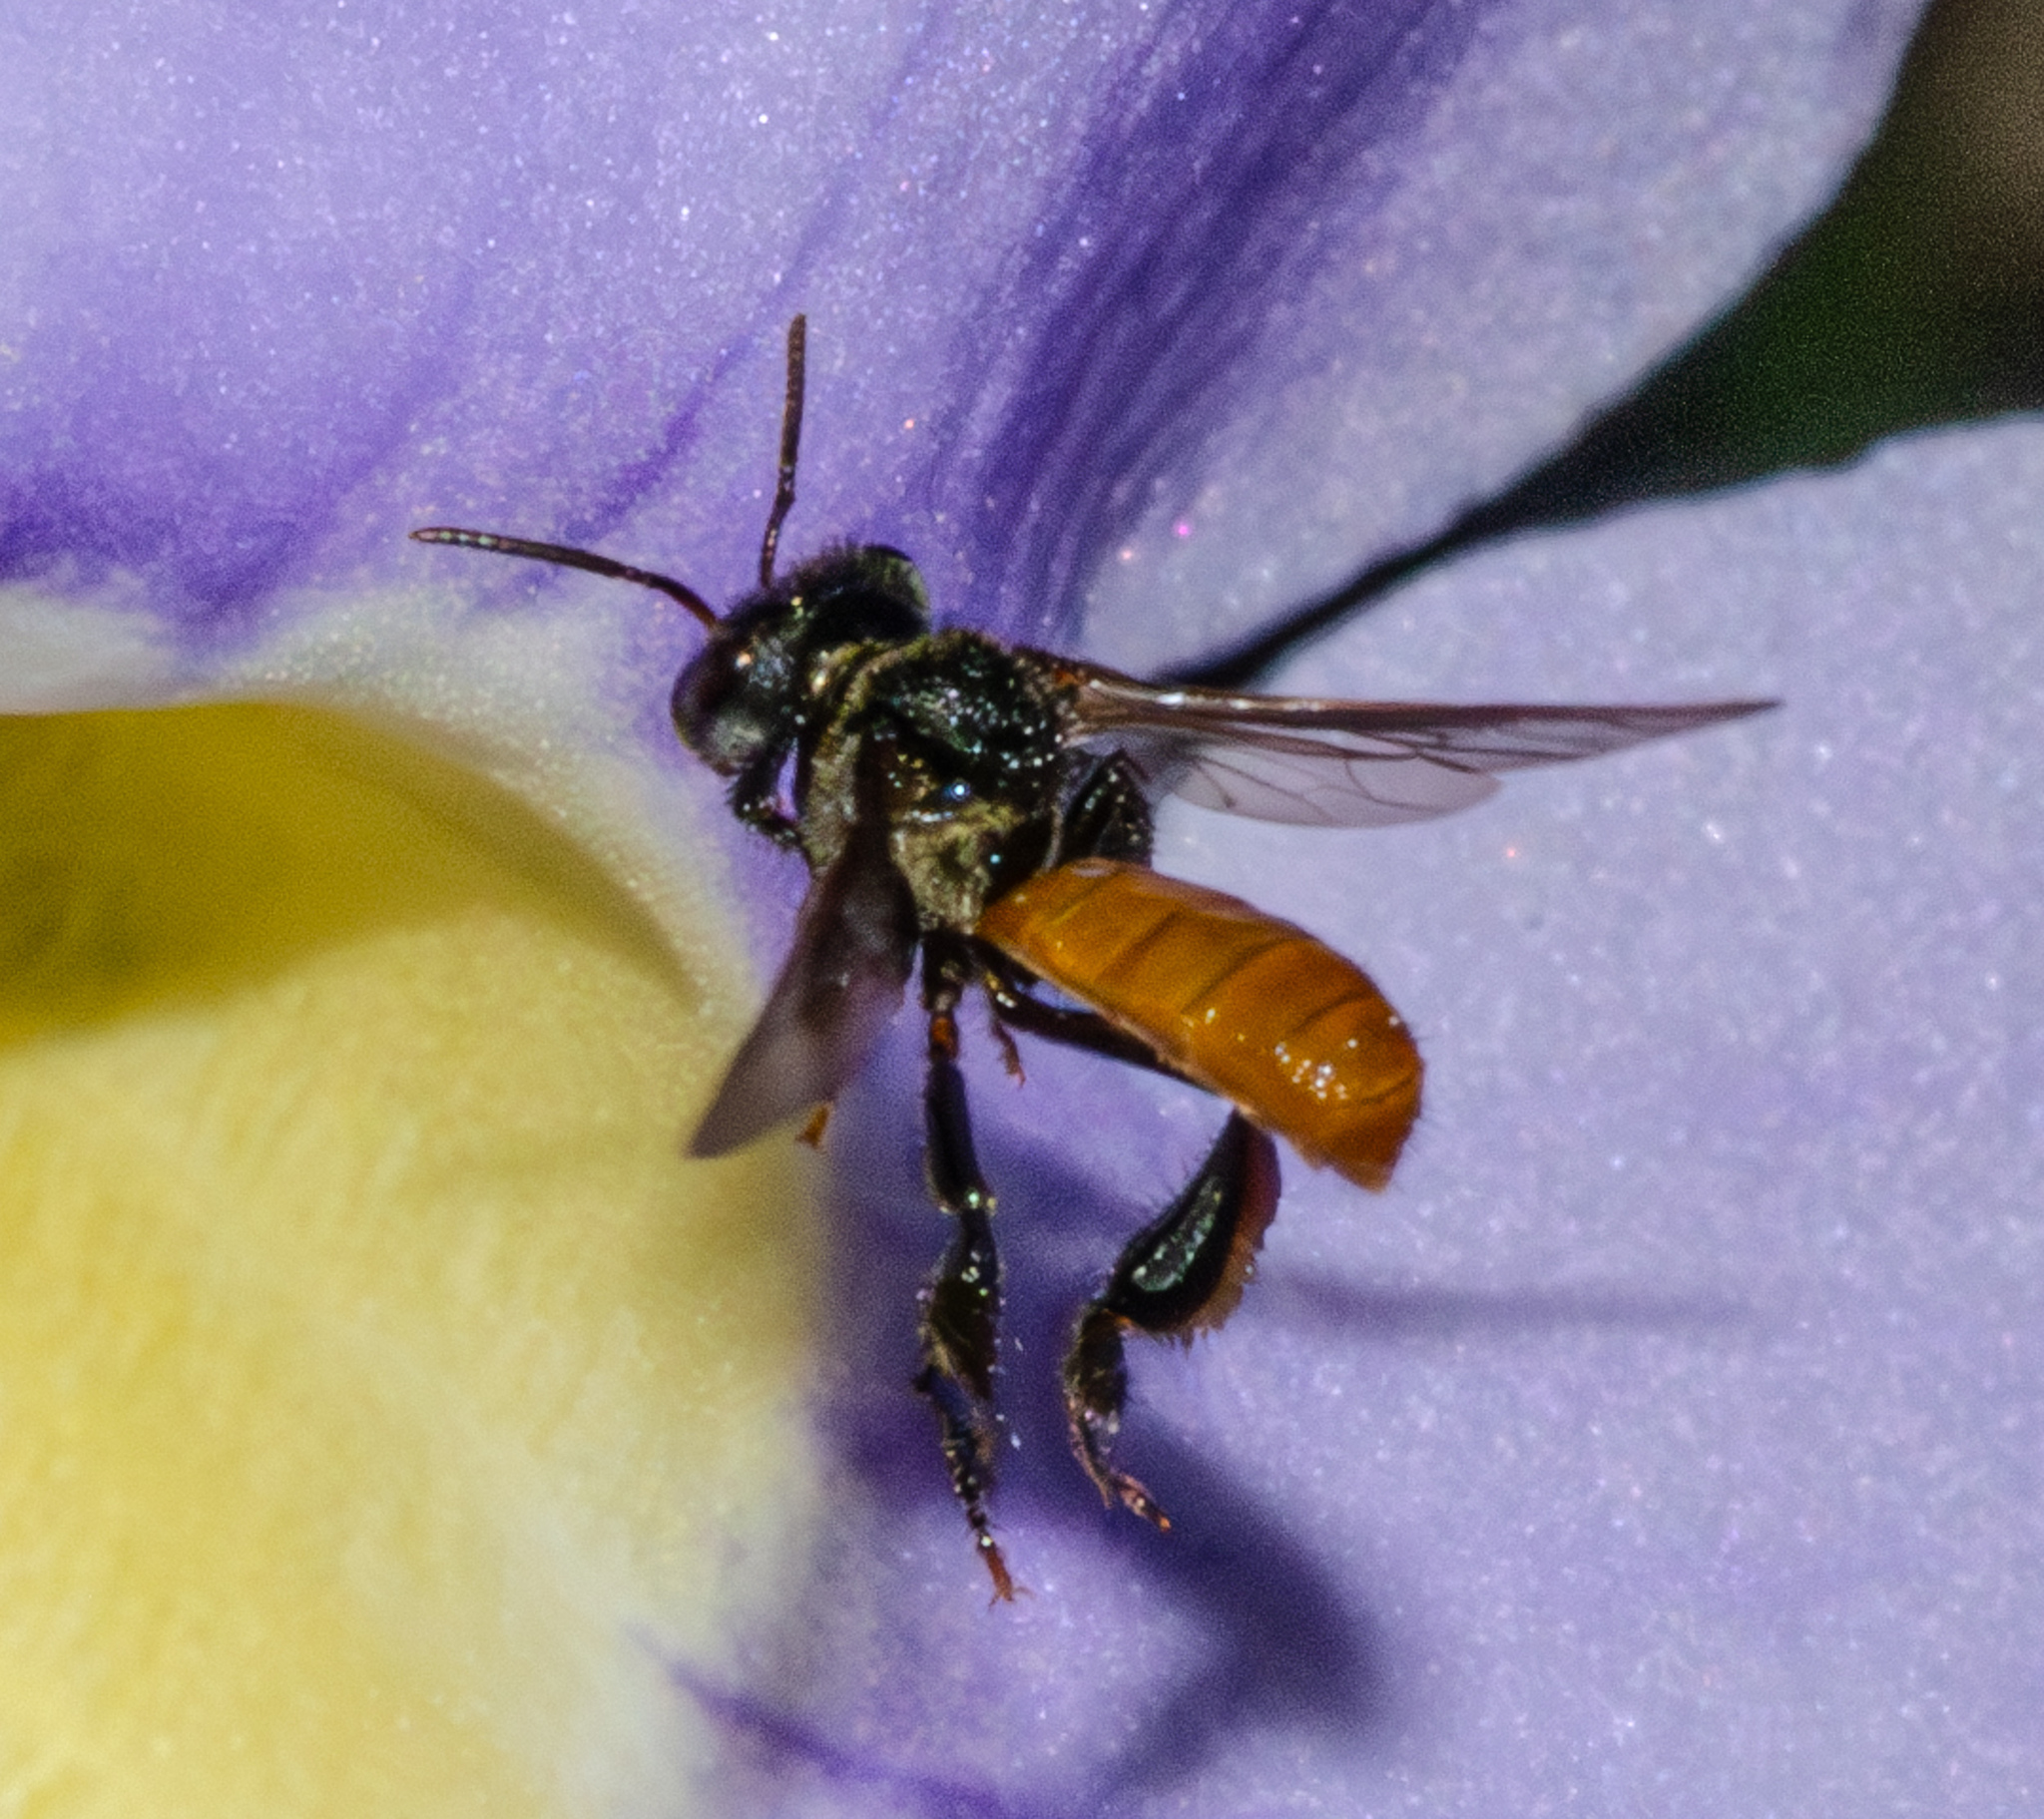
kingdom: Animalia
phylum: Arthropoda
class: Insecta
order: Hymenoptera
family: Apidae
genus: Trigona
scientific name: Trigona fulviventris
